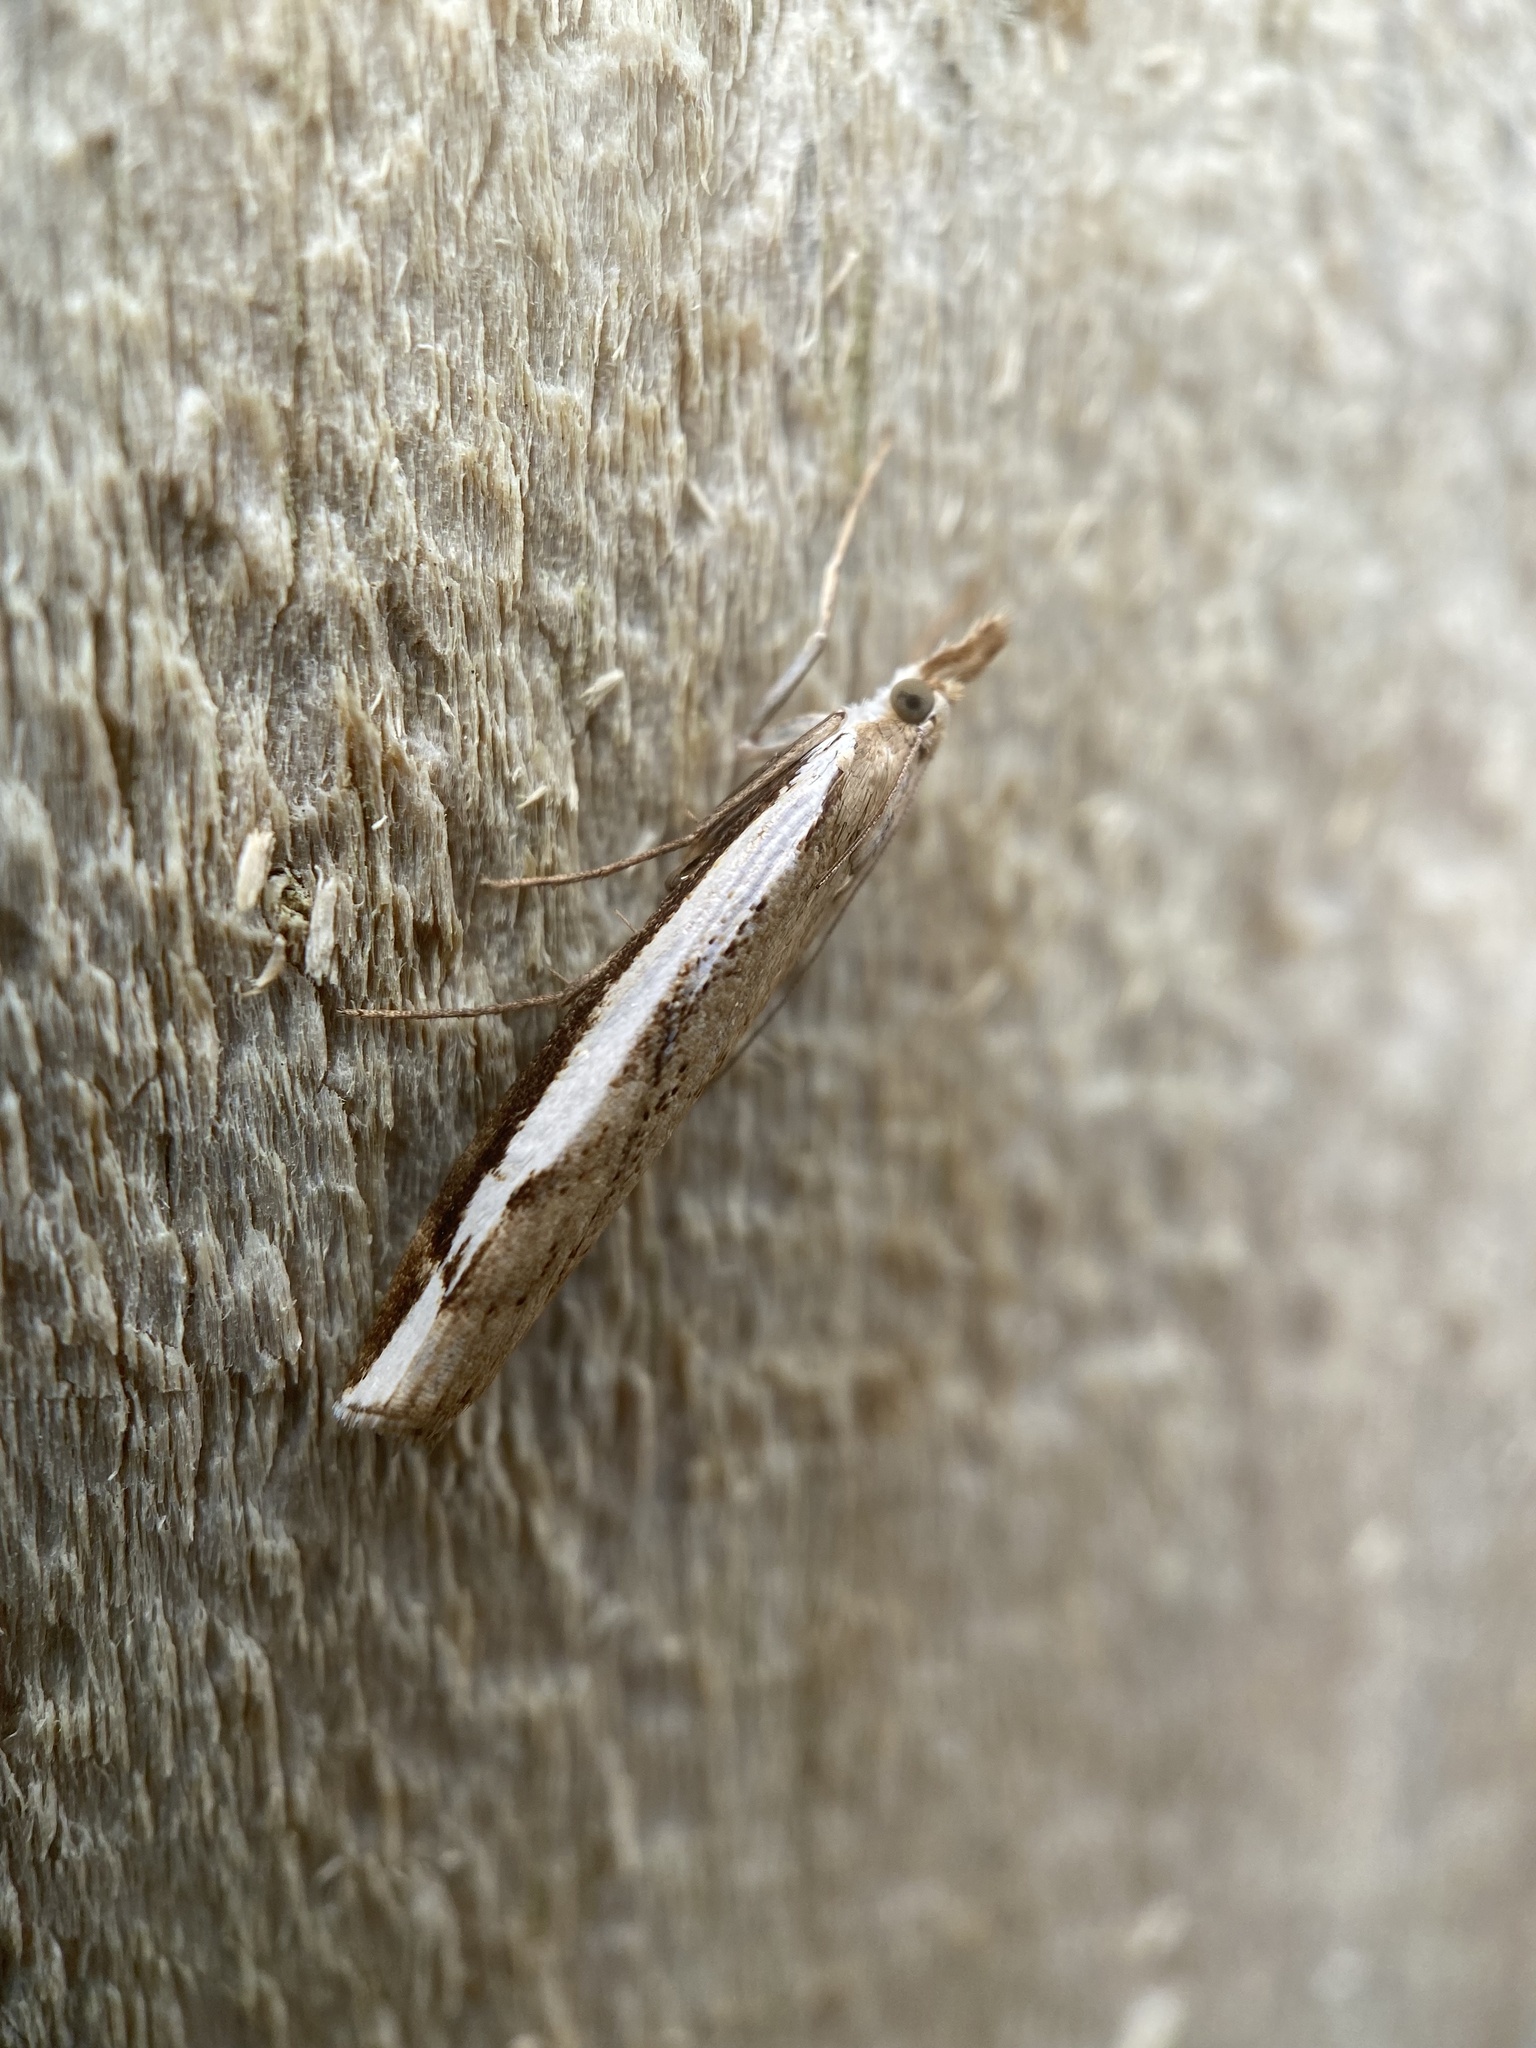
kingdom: Animalia
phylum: Arthropoda
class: Insecta
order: Lepidoptera
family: Crambidae
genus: Orocrambus
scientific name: Orocrambus flexuosellus
